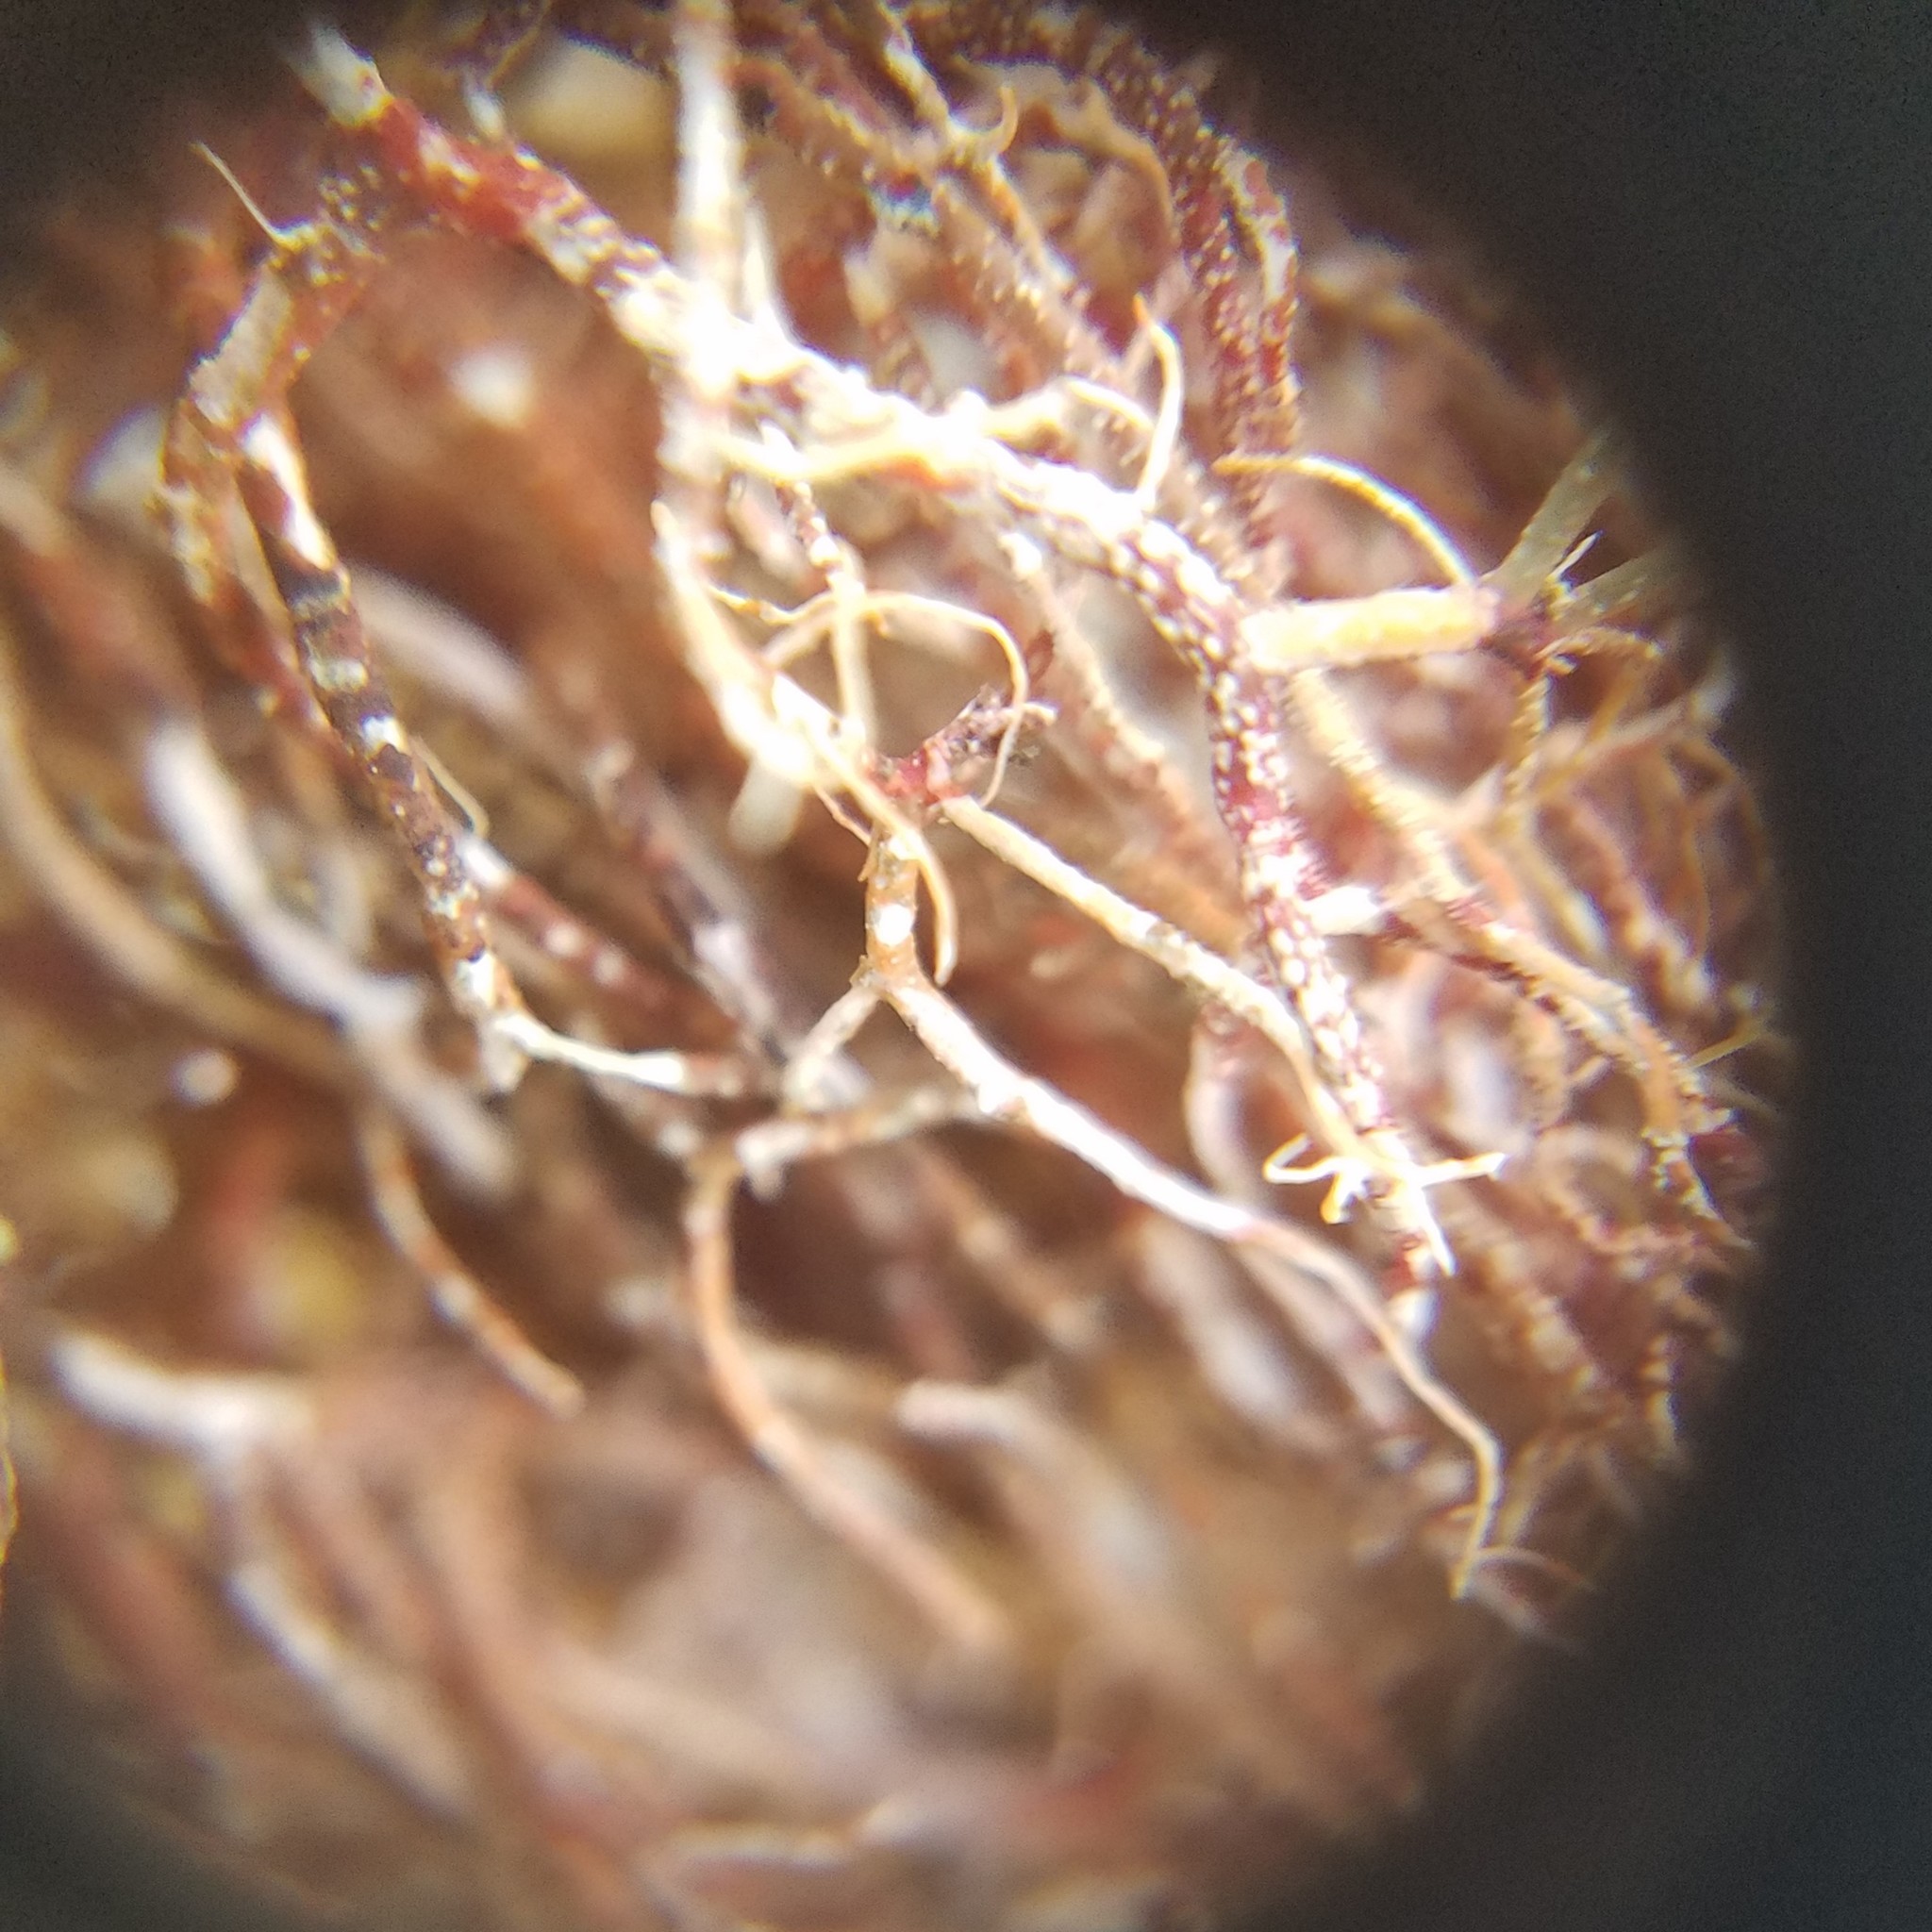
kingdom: Fungi
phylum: Ascomycota
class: Lecanoromycetes
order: Lecanorales
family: Parmeliaceae
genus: Usnea
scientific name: Usnea rubicunda
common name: Red beard lichen
